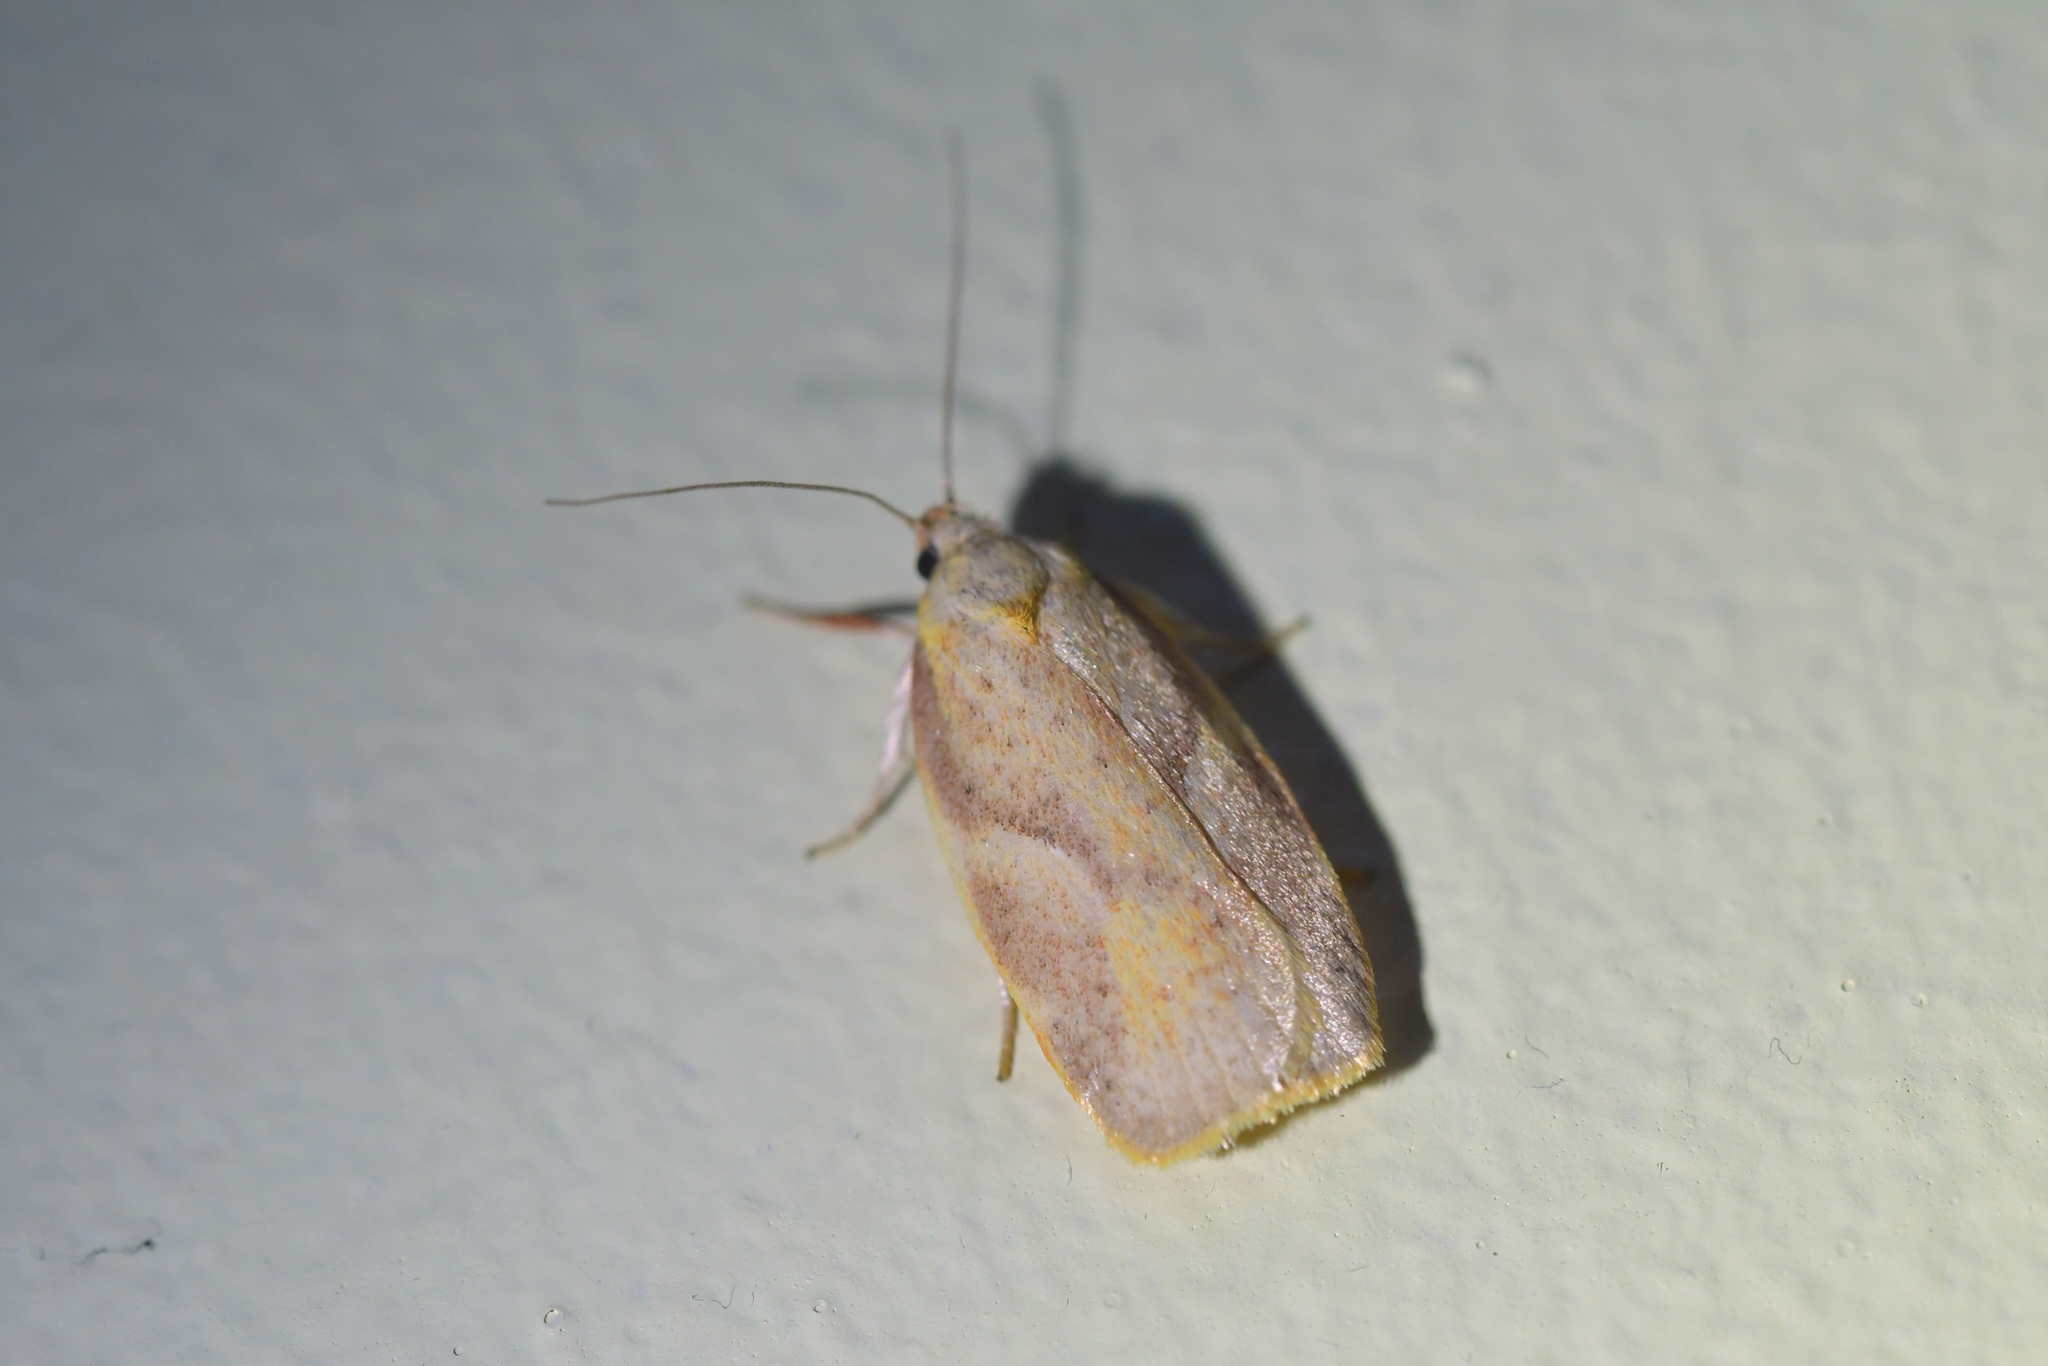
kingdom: Animalia
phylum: Arthropoda
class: Insecta
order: Lepidoptera
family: Oecophoridae
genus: Proteodes
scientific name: Proteodes carnifex
